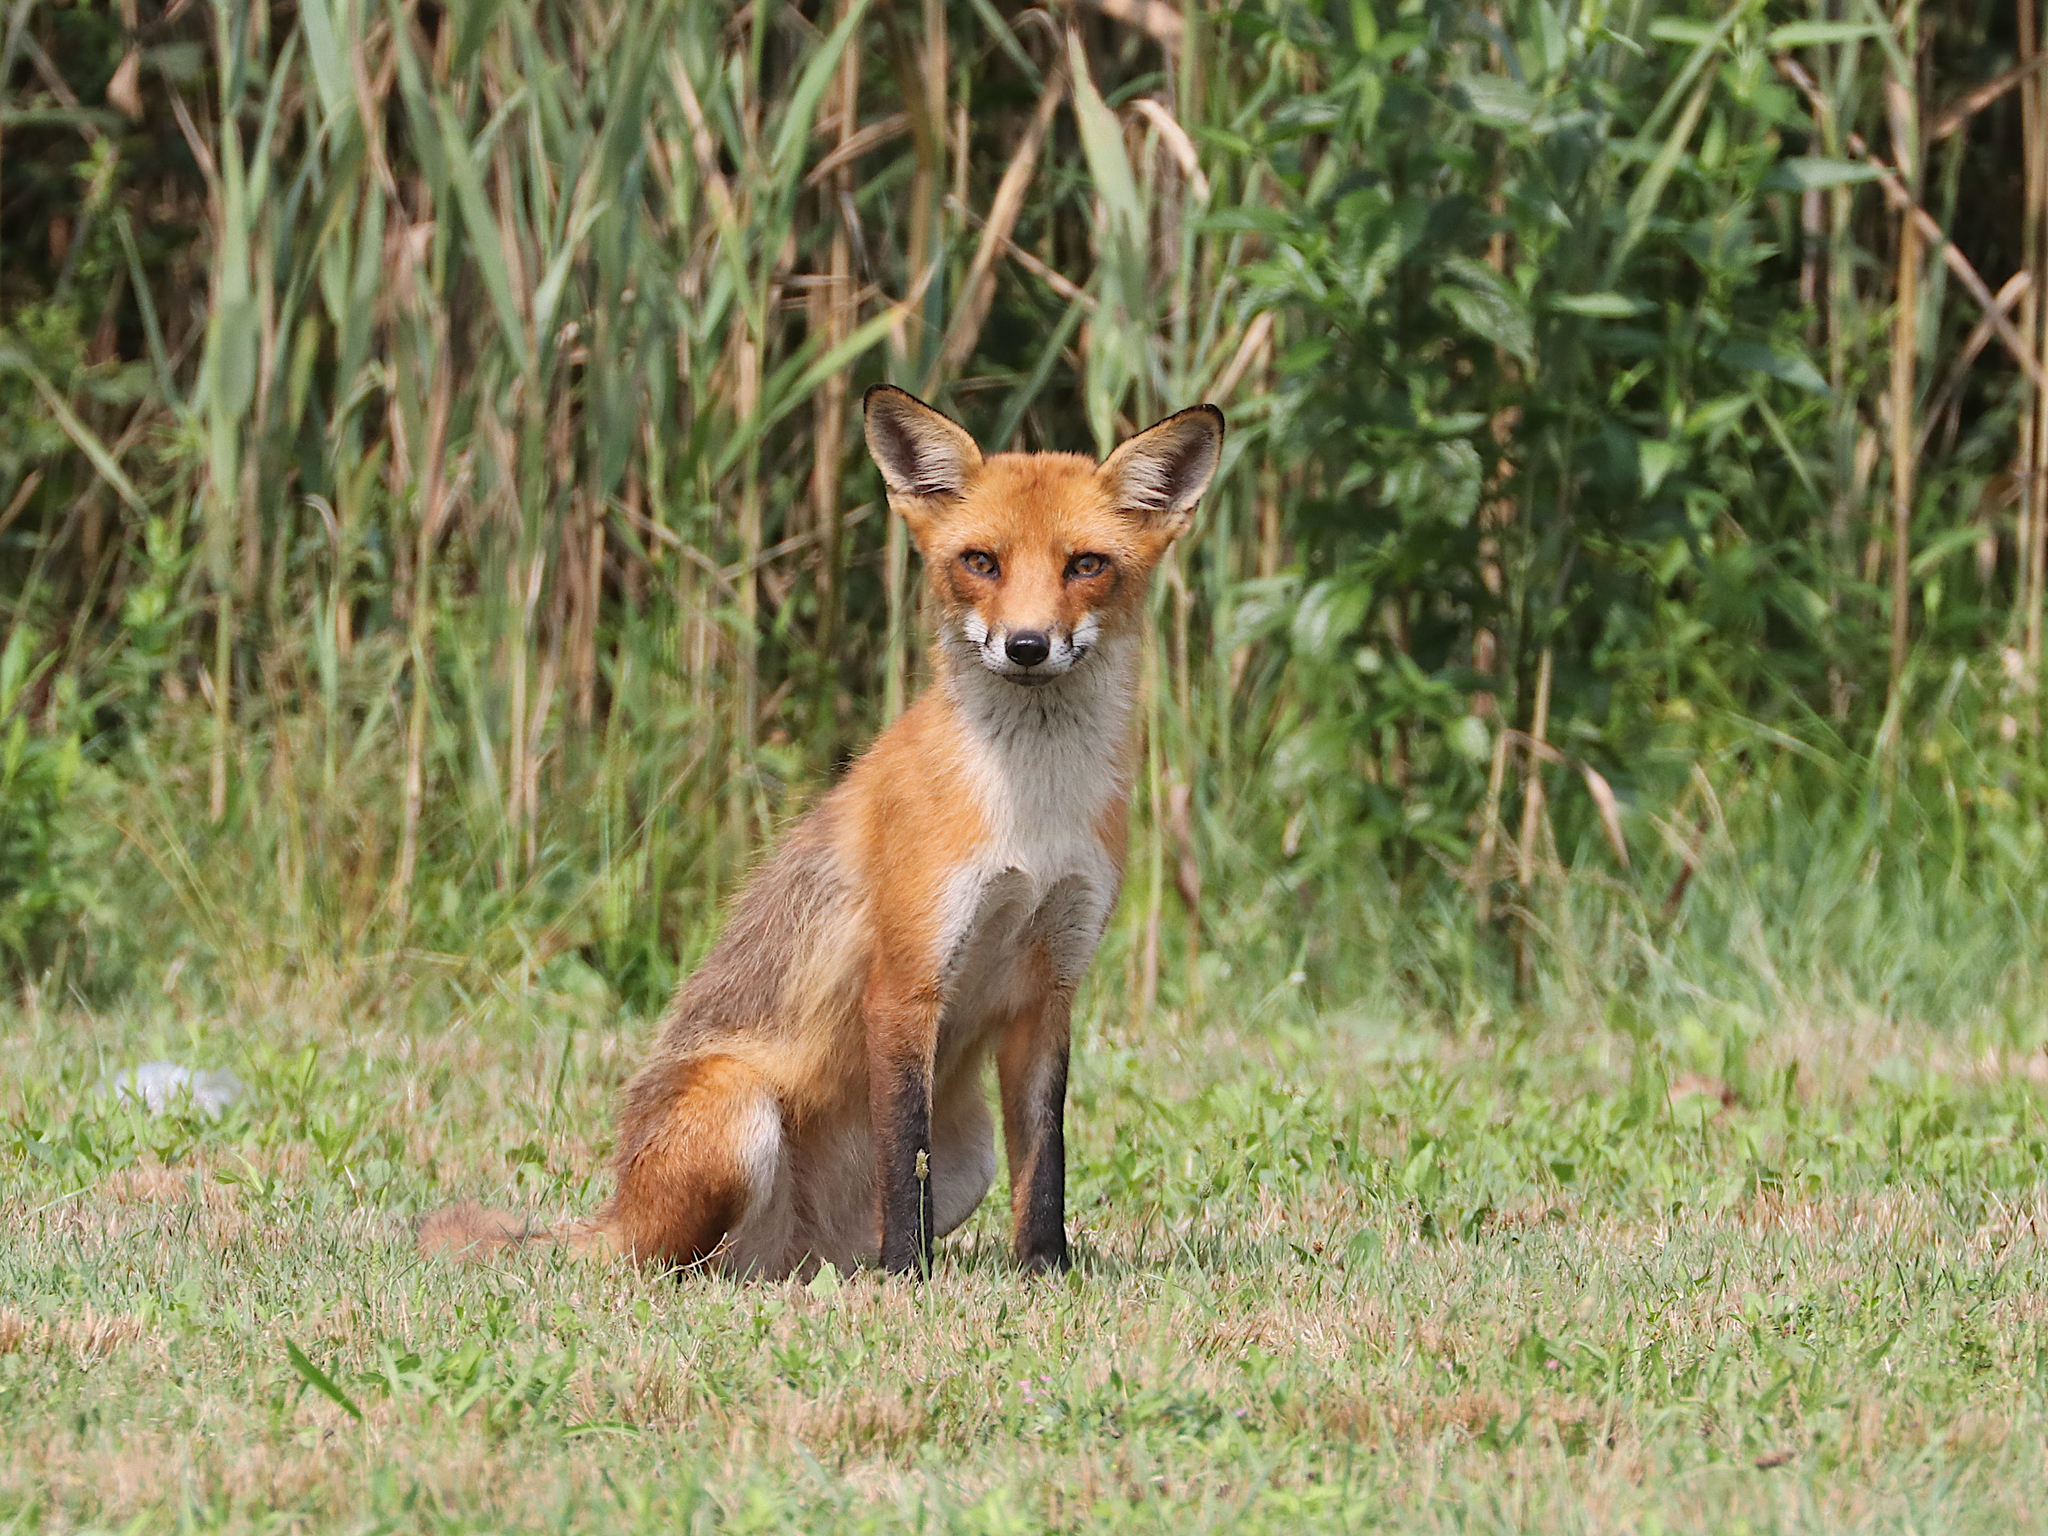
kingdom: Animalia
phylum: Chordata
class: Mammalia
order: Carnivora
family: Canidae
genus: Vulpes
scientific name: Vulpes vulpes
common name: Red fox
